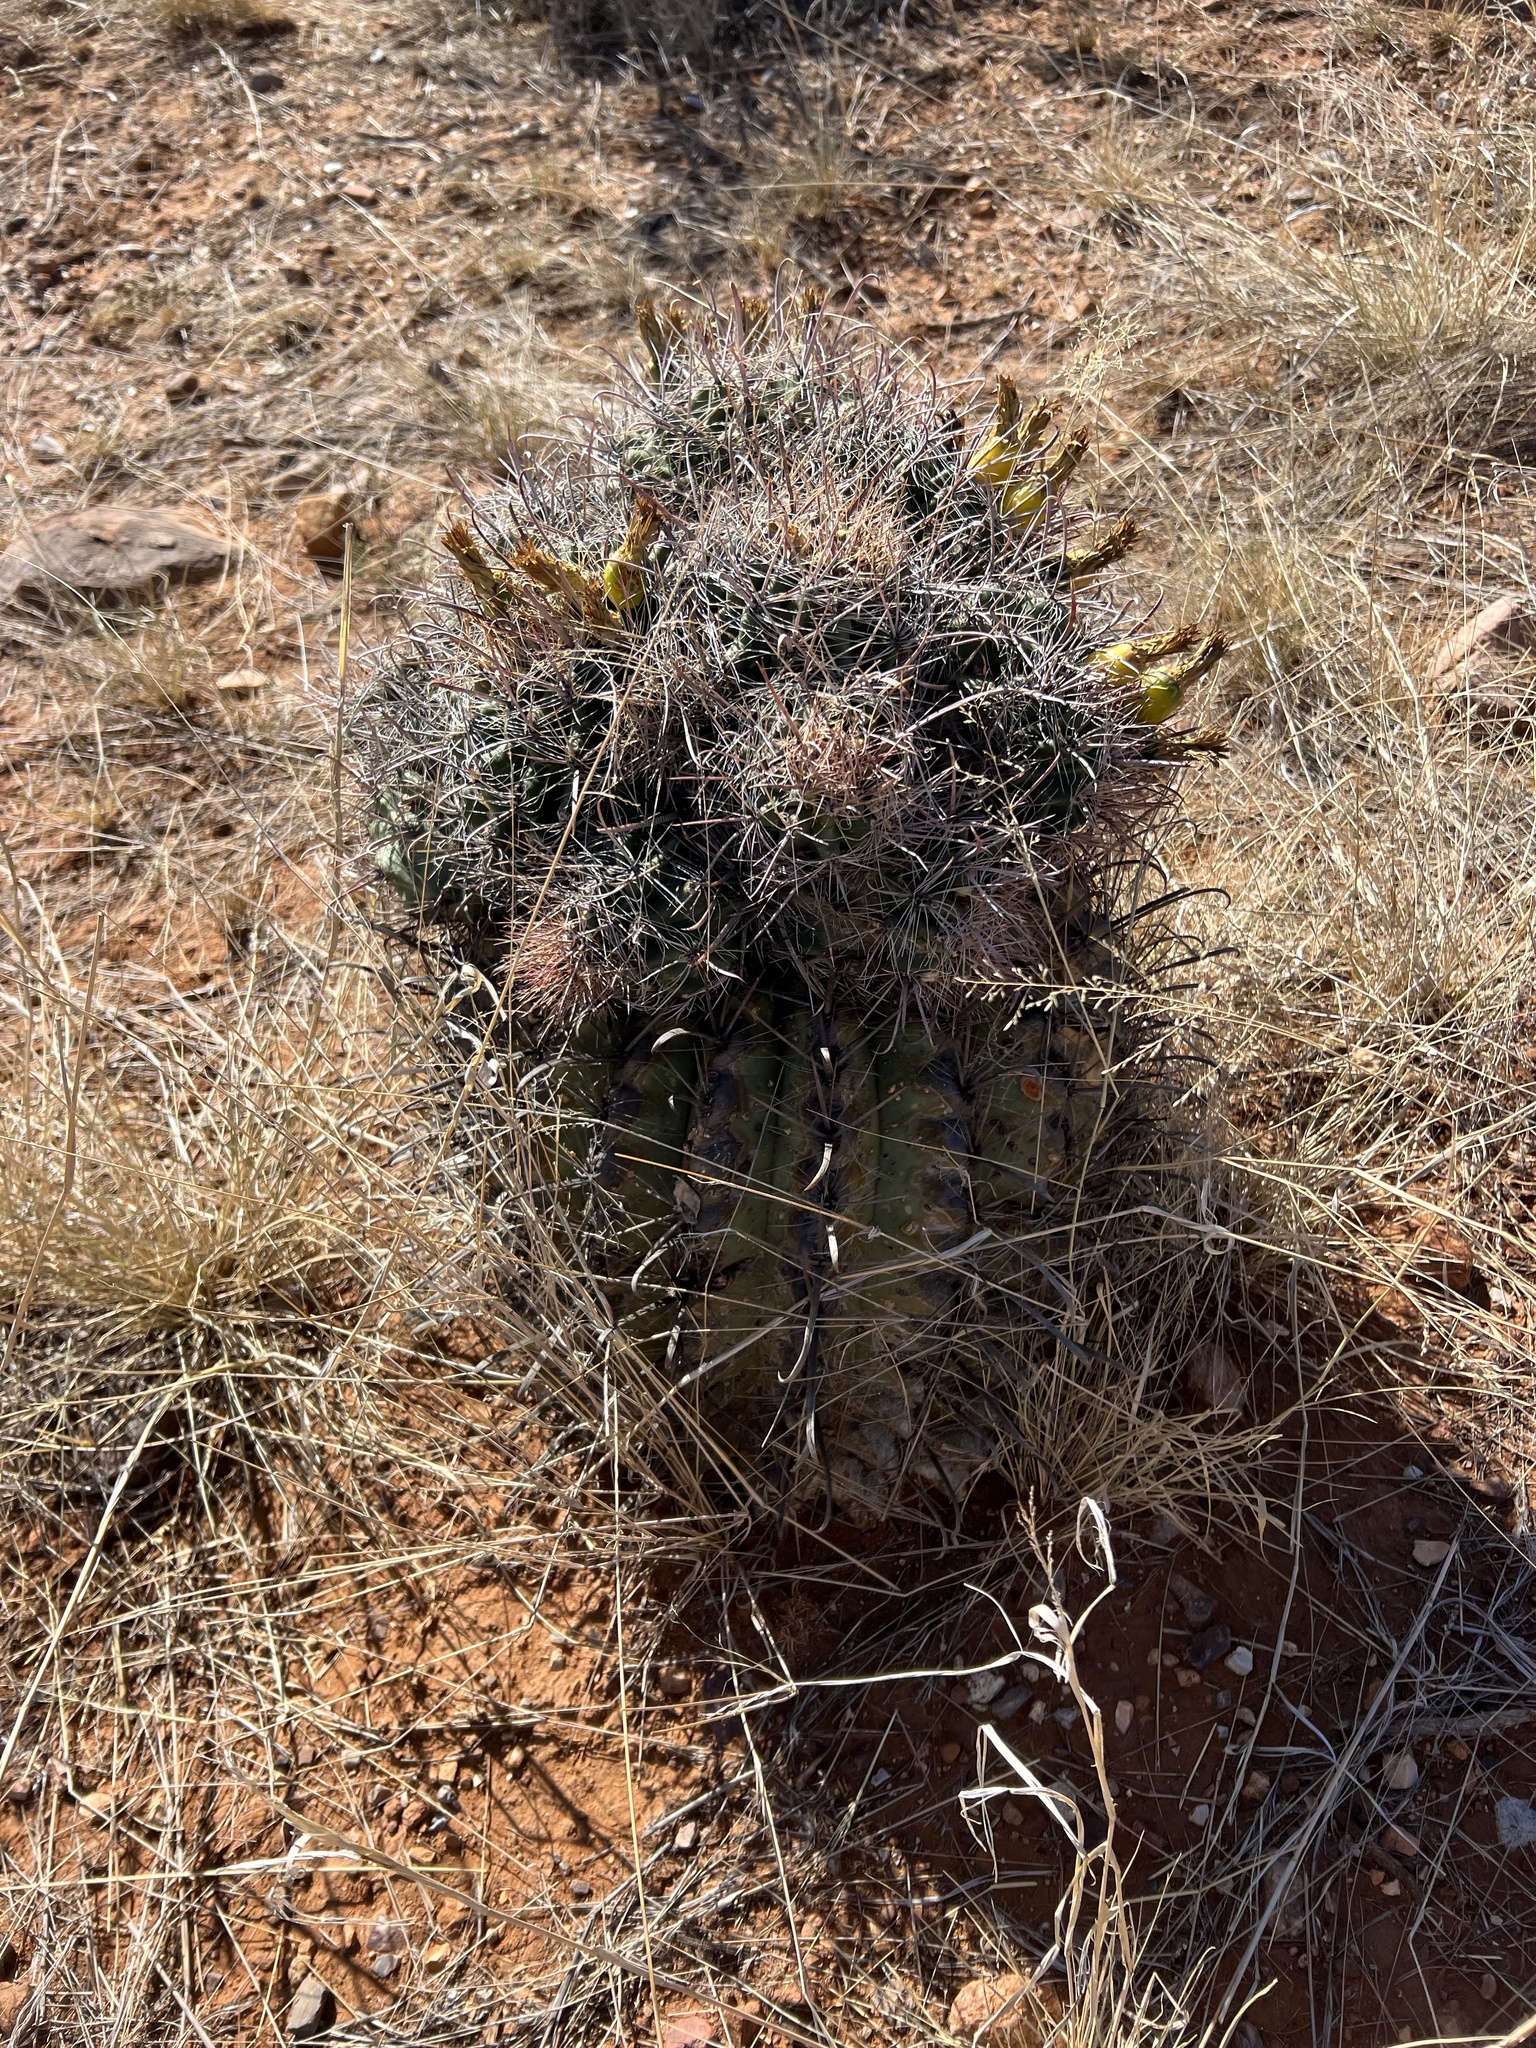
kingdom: Plantae
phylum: Tracheophyta
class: Magnoliopsida
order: Caryophyllales
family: Cactaceae
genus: Ferocactus
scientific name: Ferocactus wislizeni
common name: Candy barrel cactus
